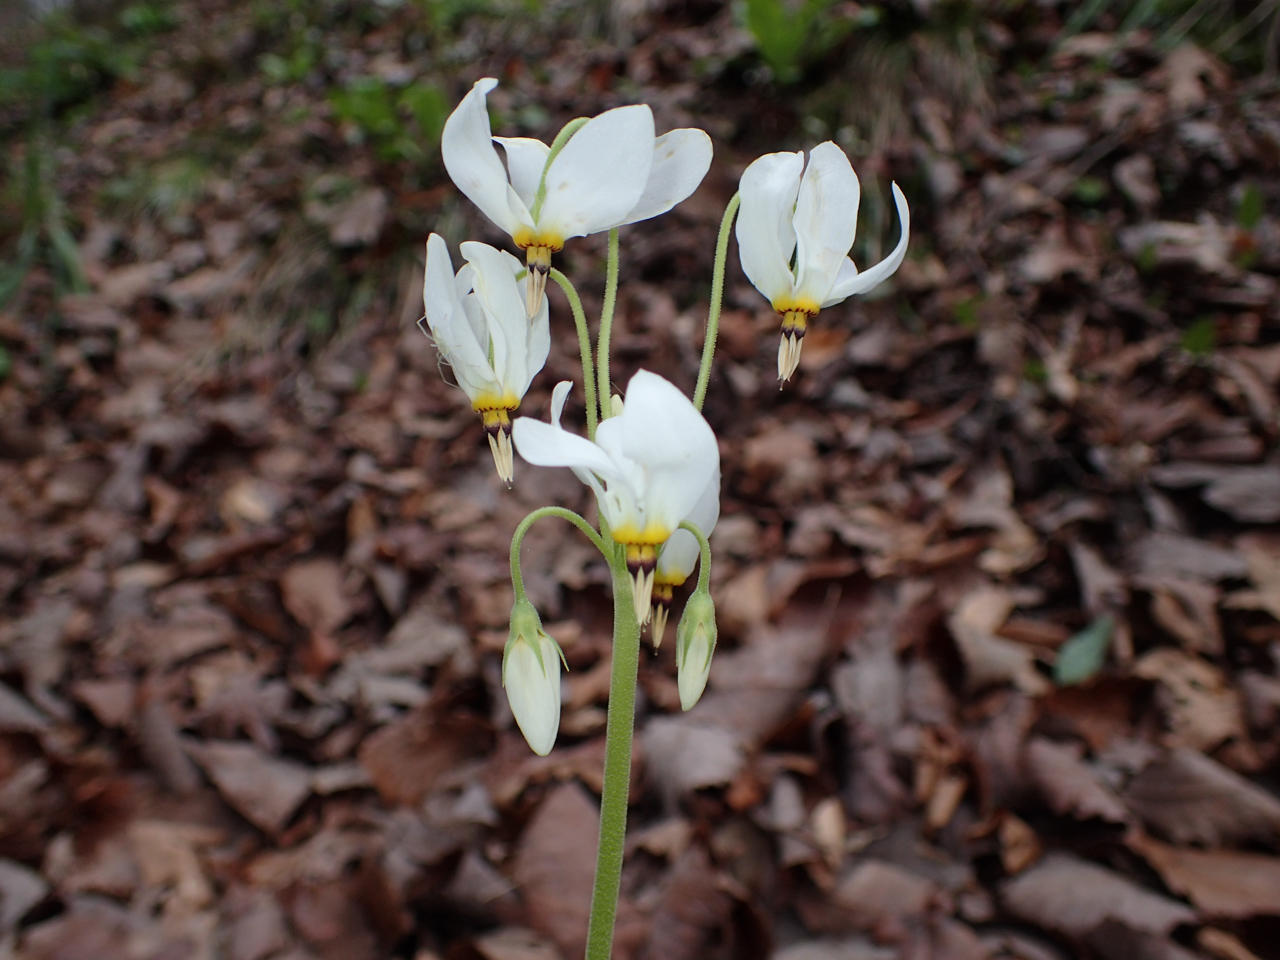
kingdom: Plantae
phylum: Tracheophyta
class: Magnoliopsida
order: Ericales
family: Primulaceae
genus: Dodecatheon
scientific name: Dodecatheon meadia
